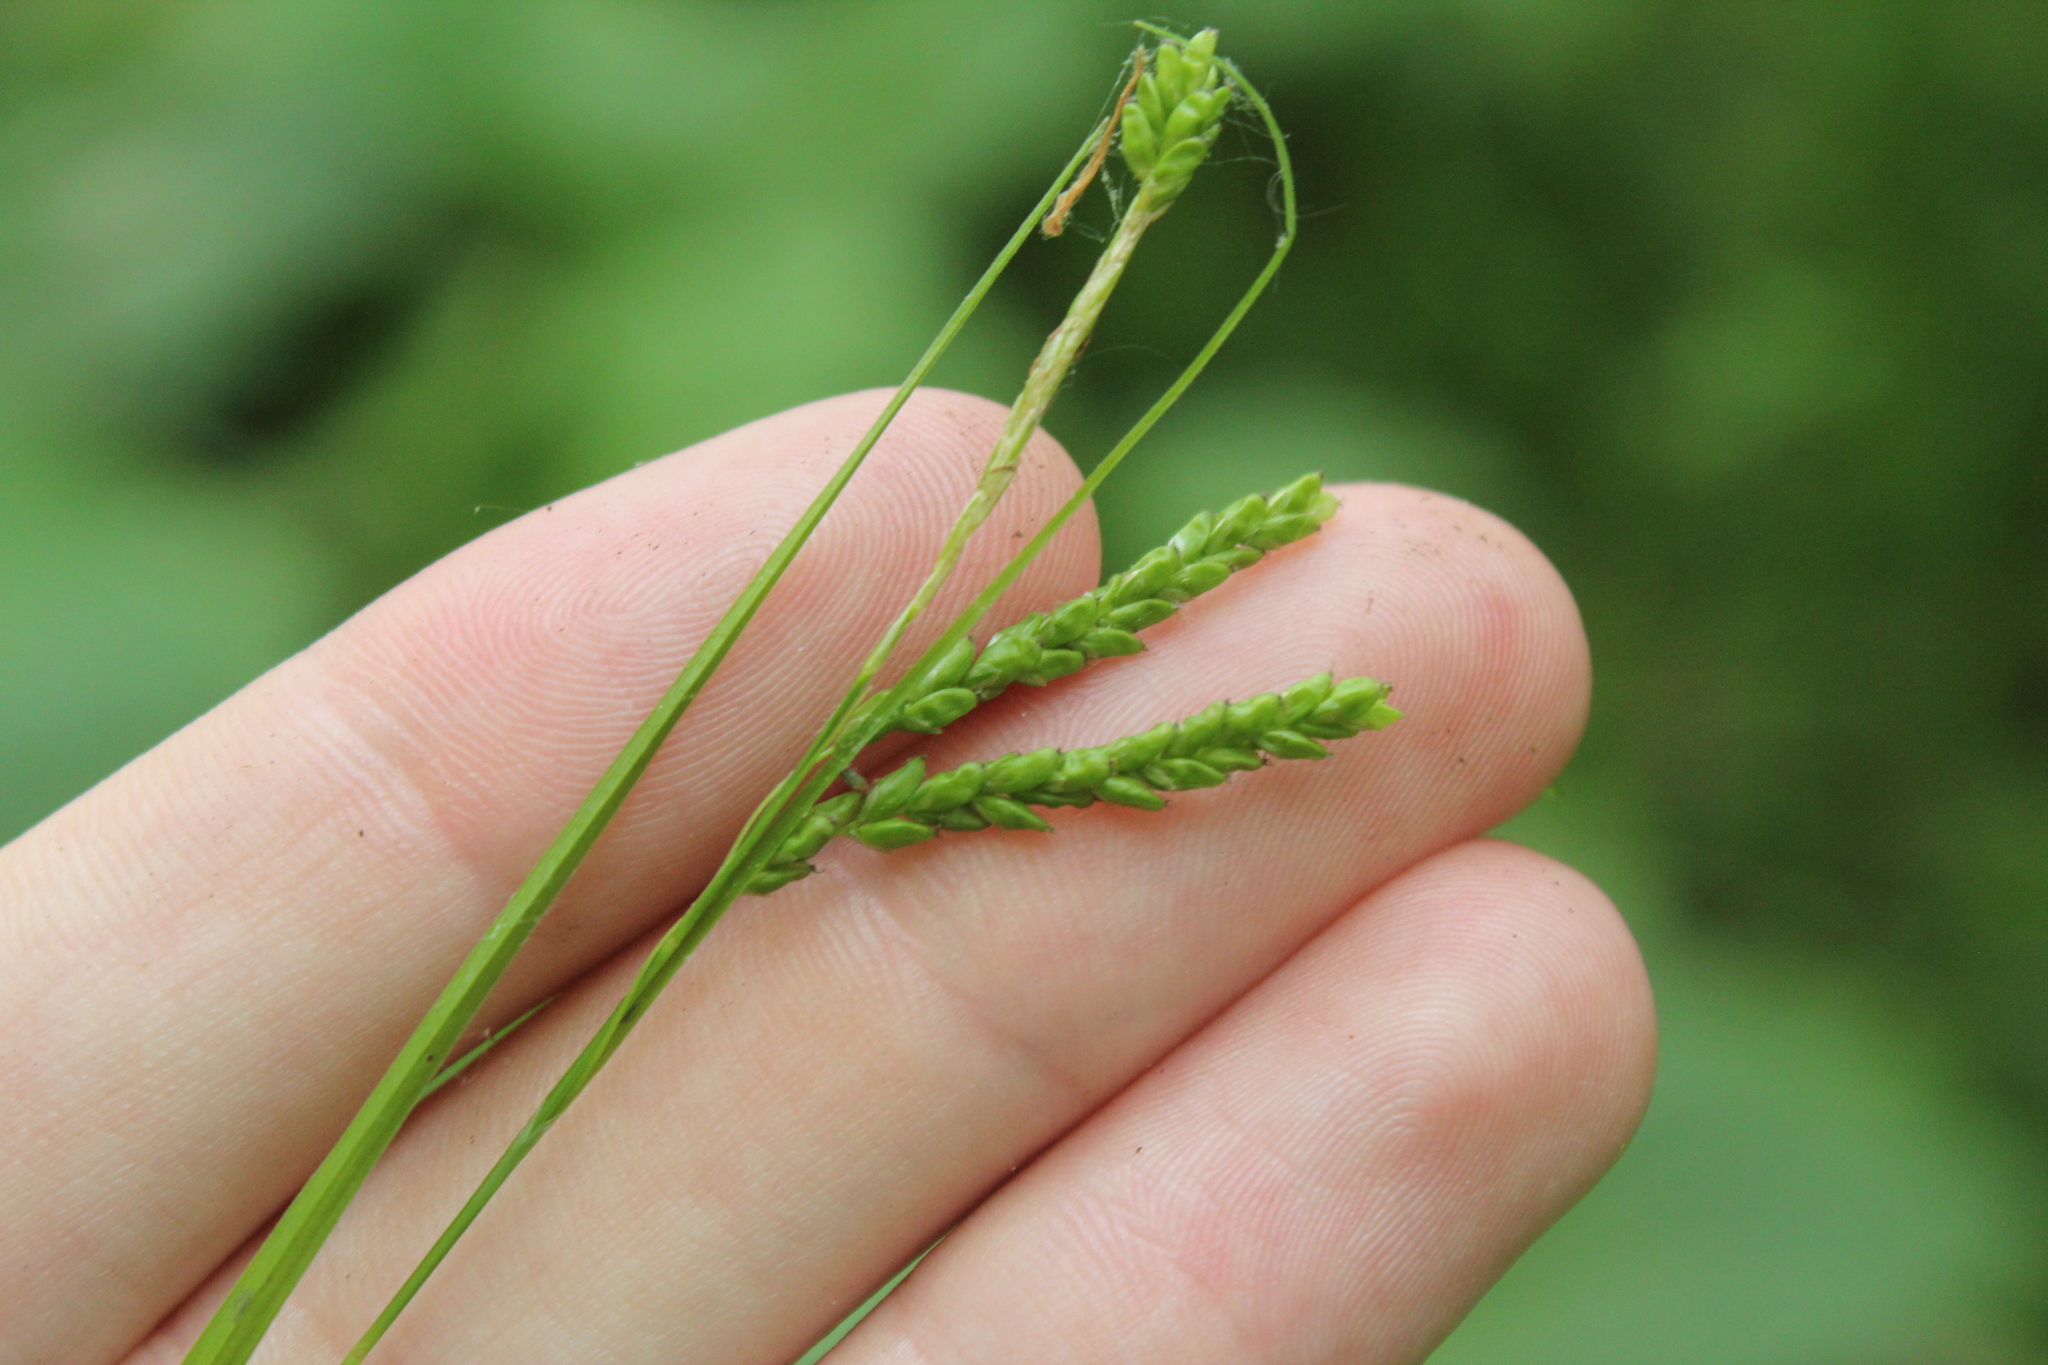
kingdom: Plantae
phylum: Tracheophyta
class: Liliopsida
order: Poales
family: Cyperaceae
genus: Carex
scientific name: Carex gracillima
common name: Graceful sedge
